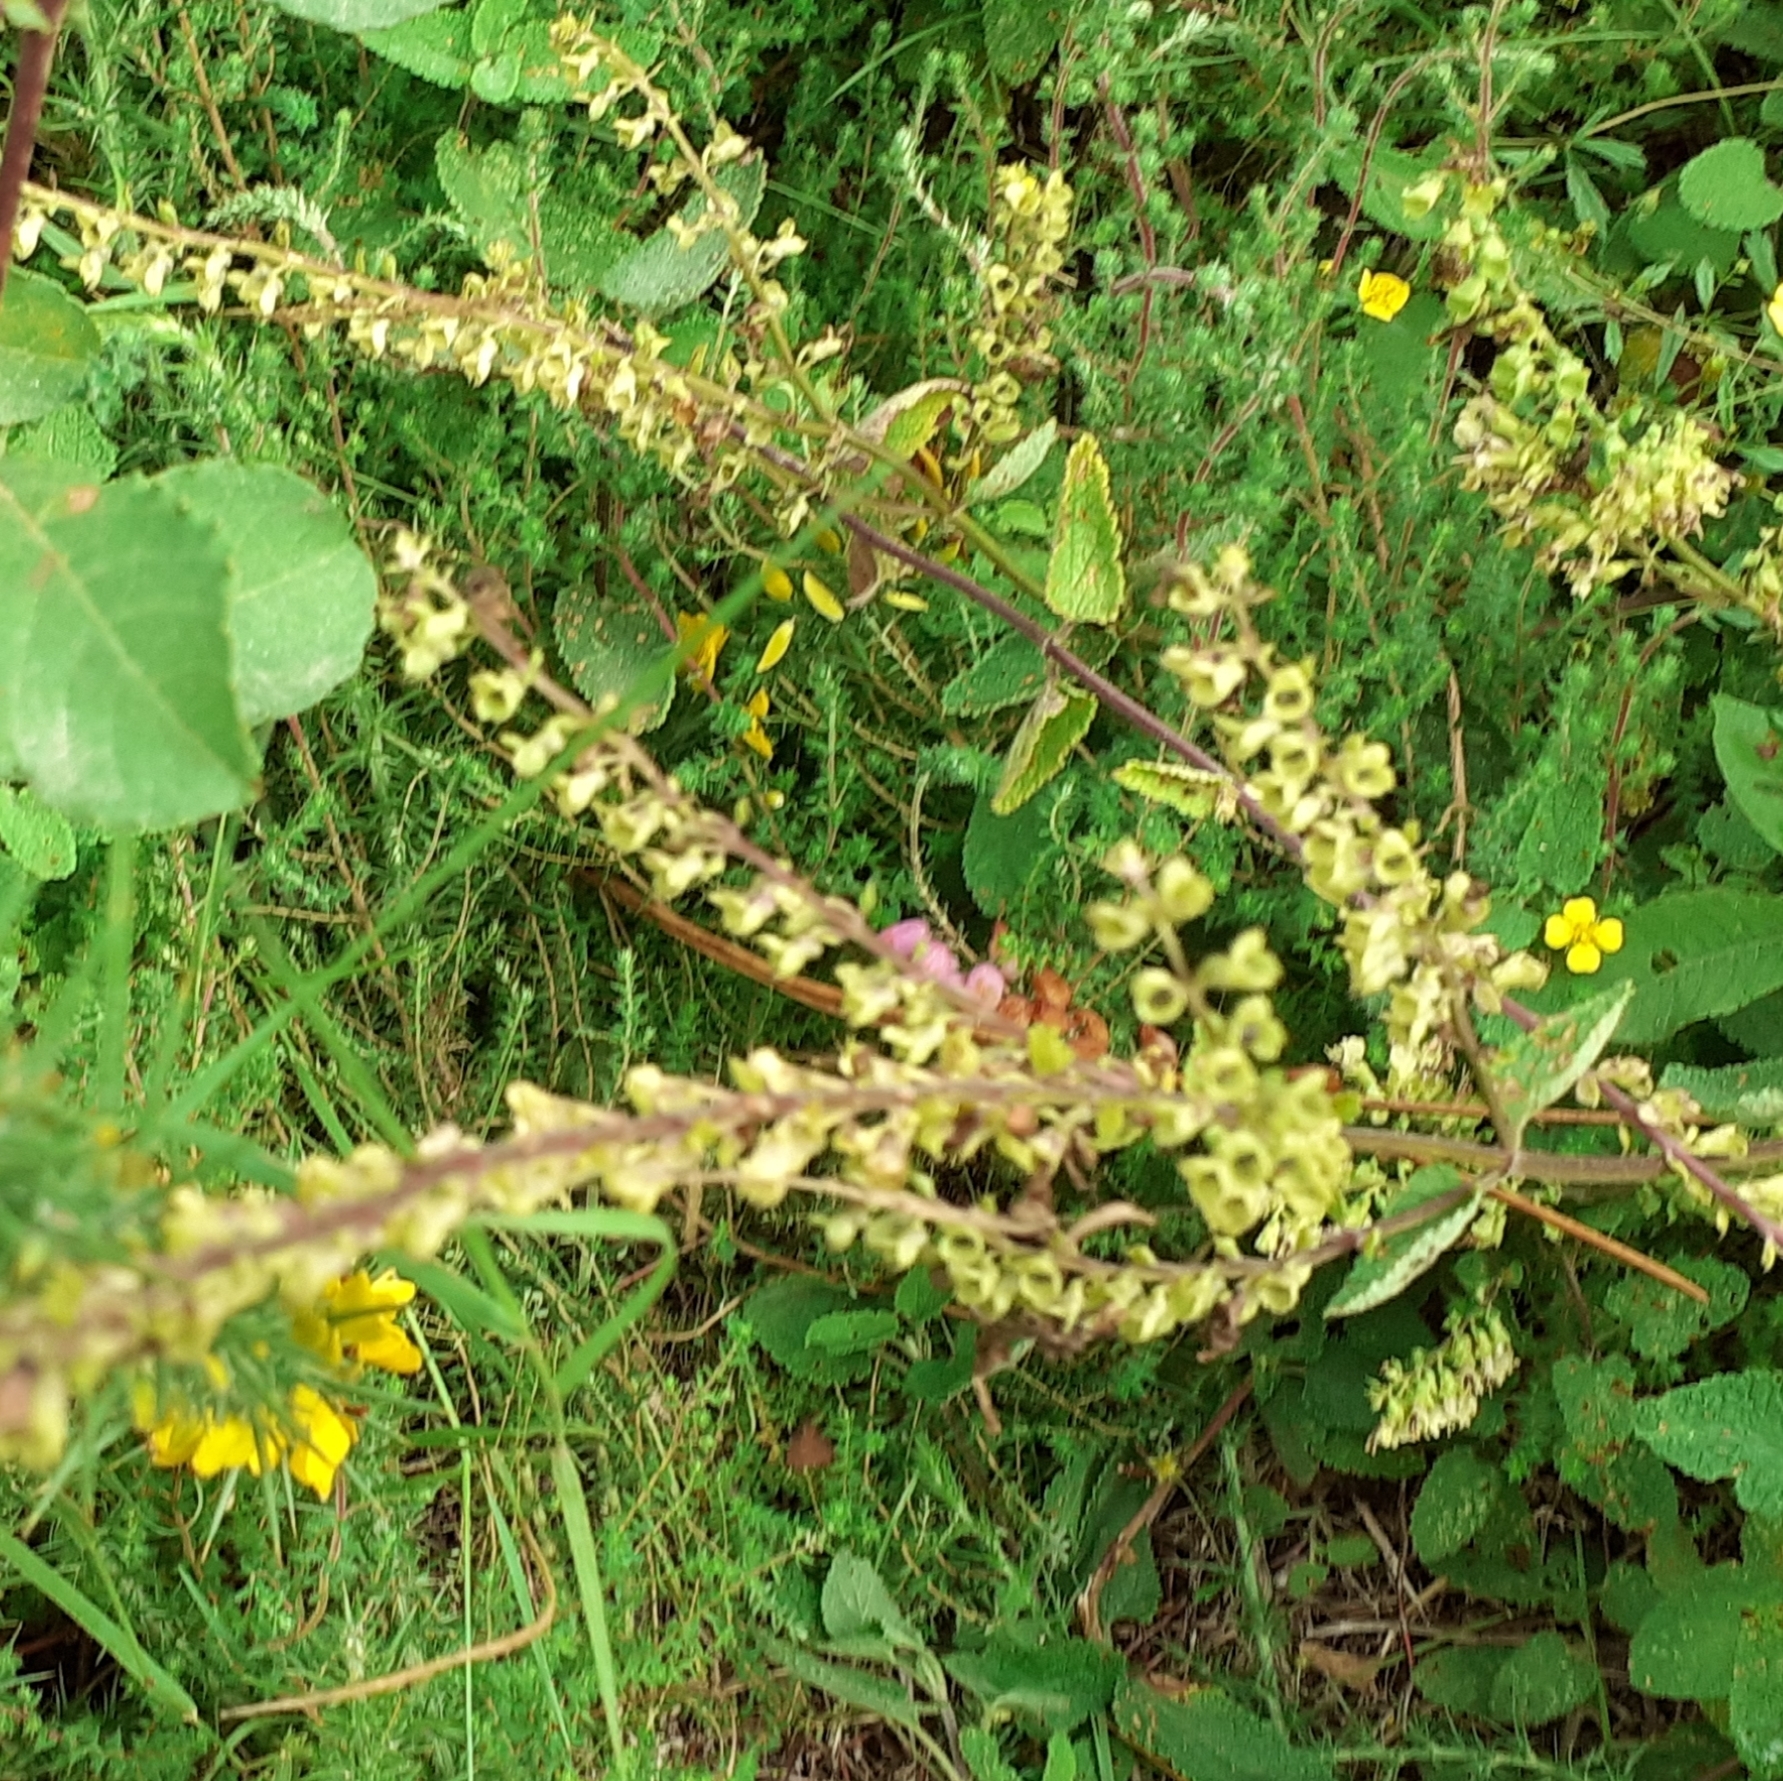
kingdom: Plantae
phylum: Tracheophyta
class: Magnoliopsida
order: Lamiales
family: Lamiaceae
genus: Teucrium
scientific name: Teucrium scorodonia
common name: Woodland germander
